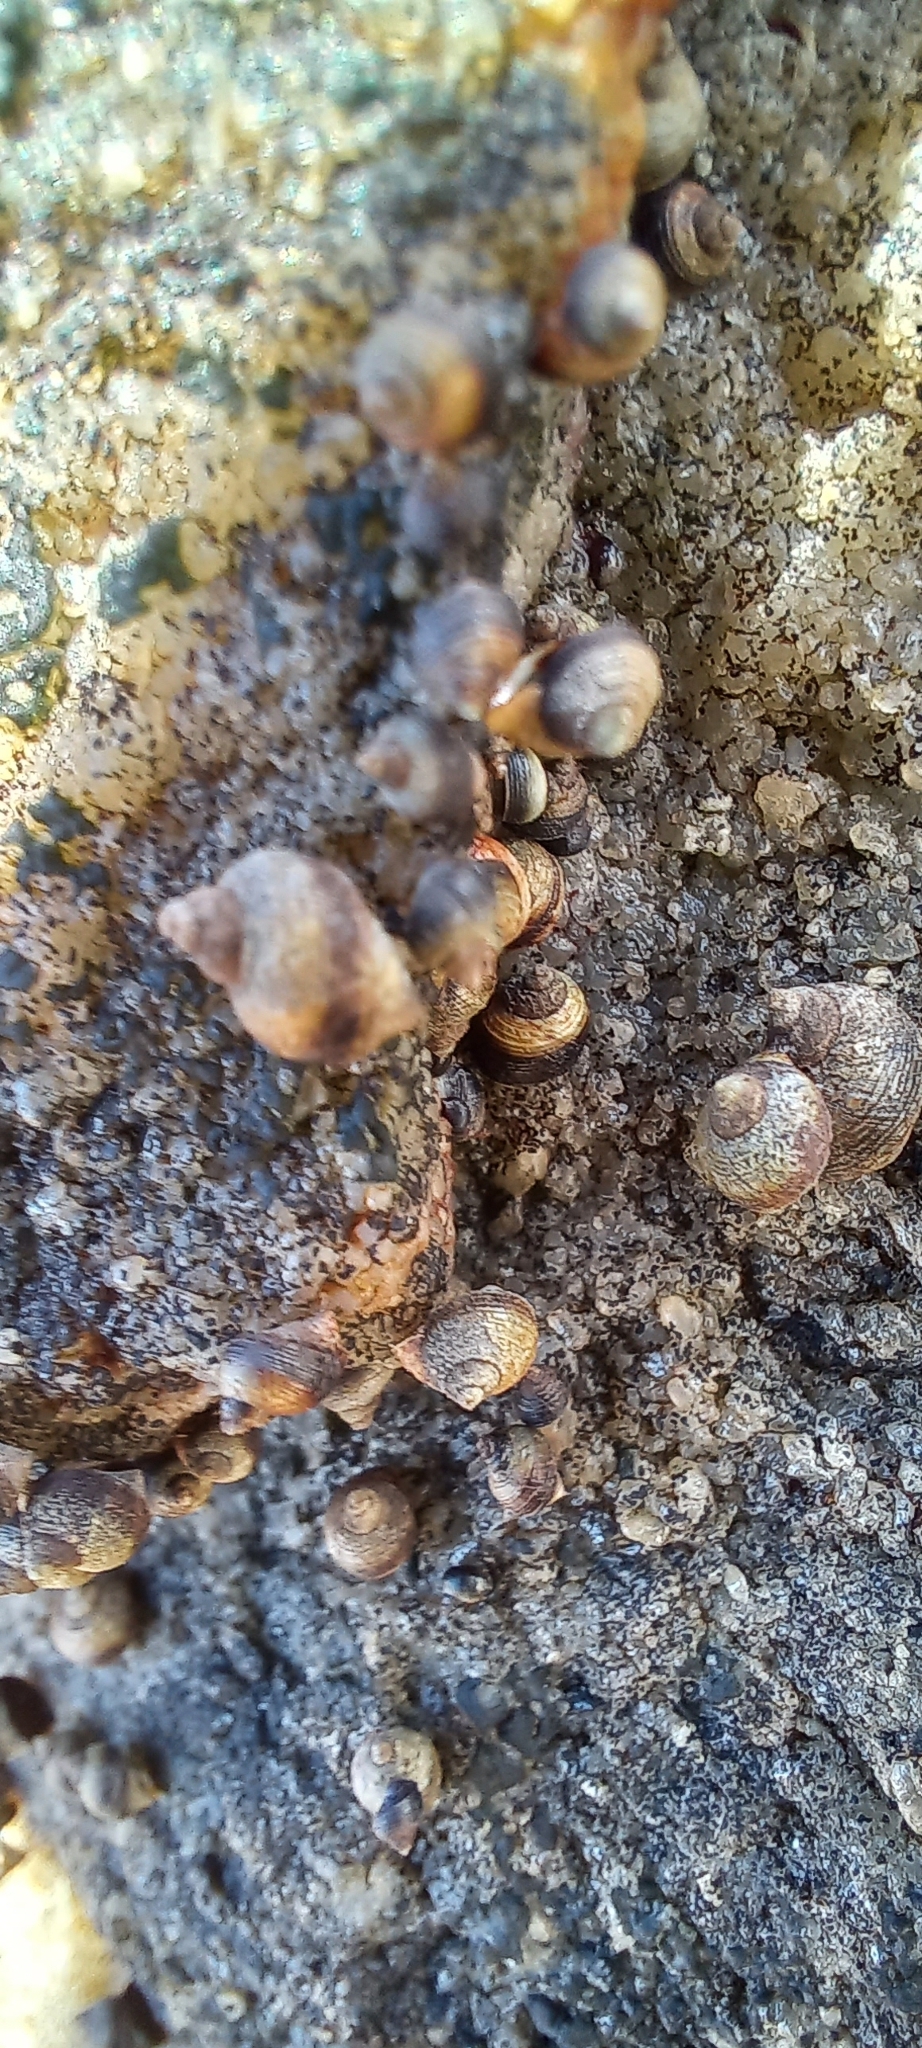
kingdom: Animalia
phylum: Mollusca
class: Gastropoda
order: Littorinimorpha
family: Littorinidae
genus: Afrolittorina
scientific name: Afrolittorina knysnaensis
